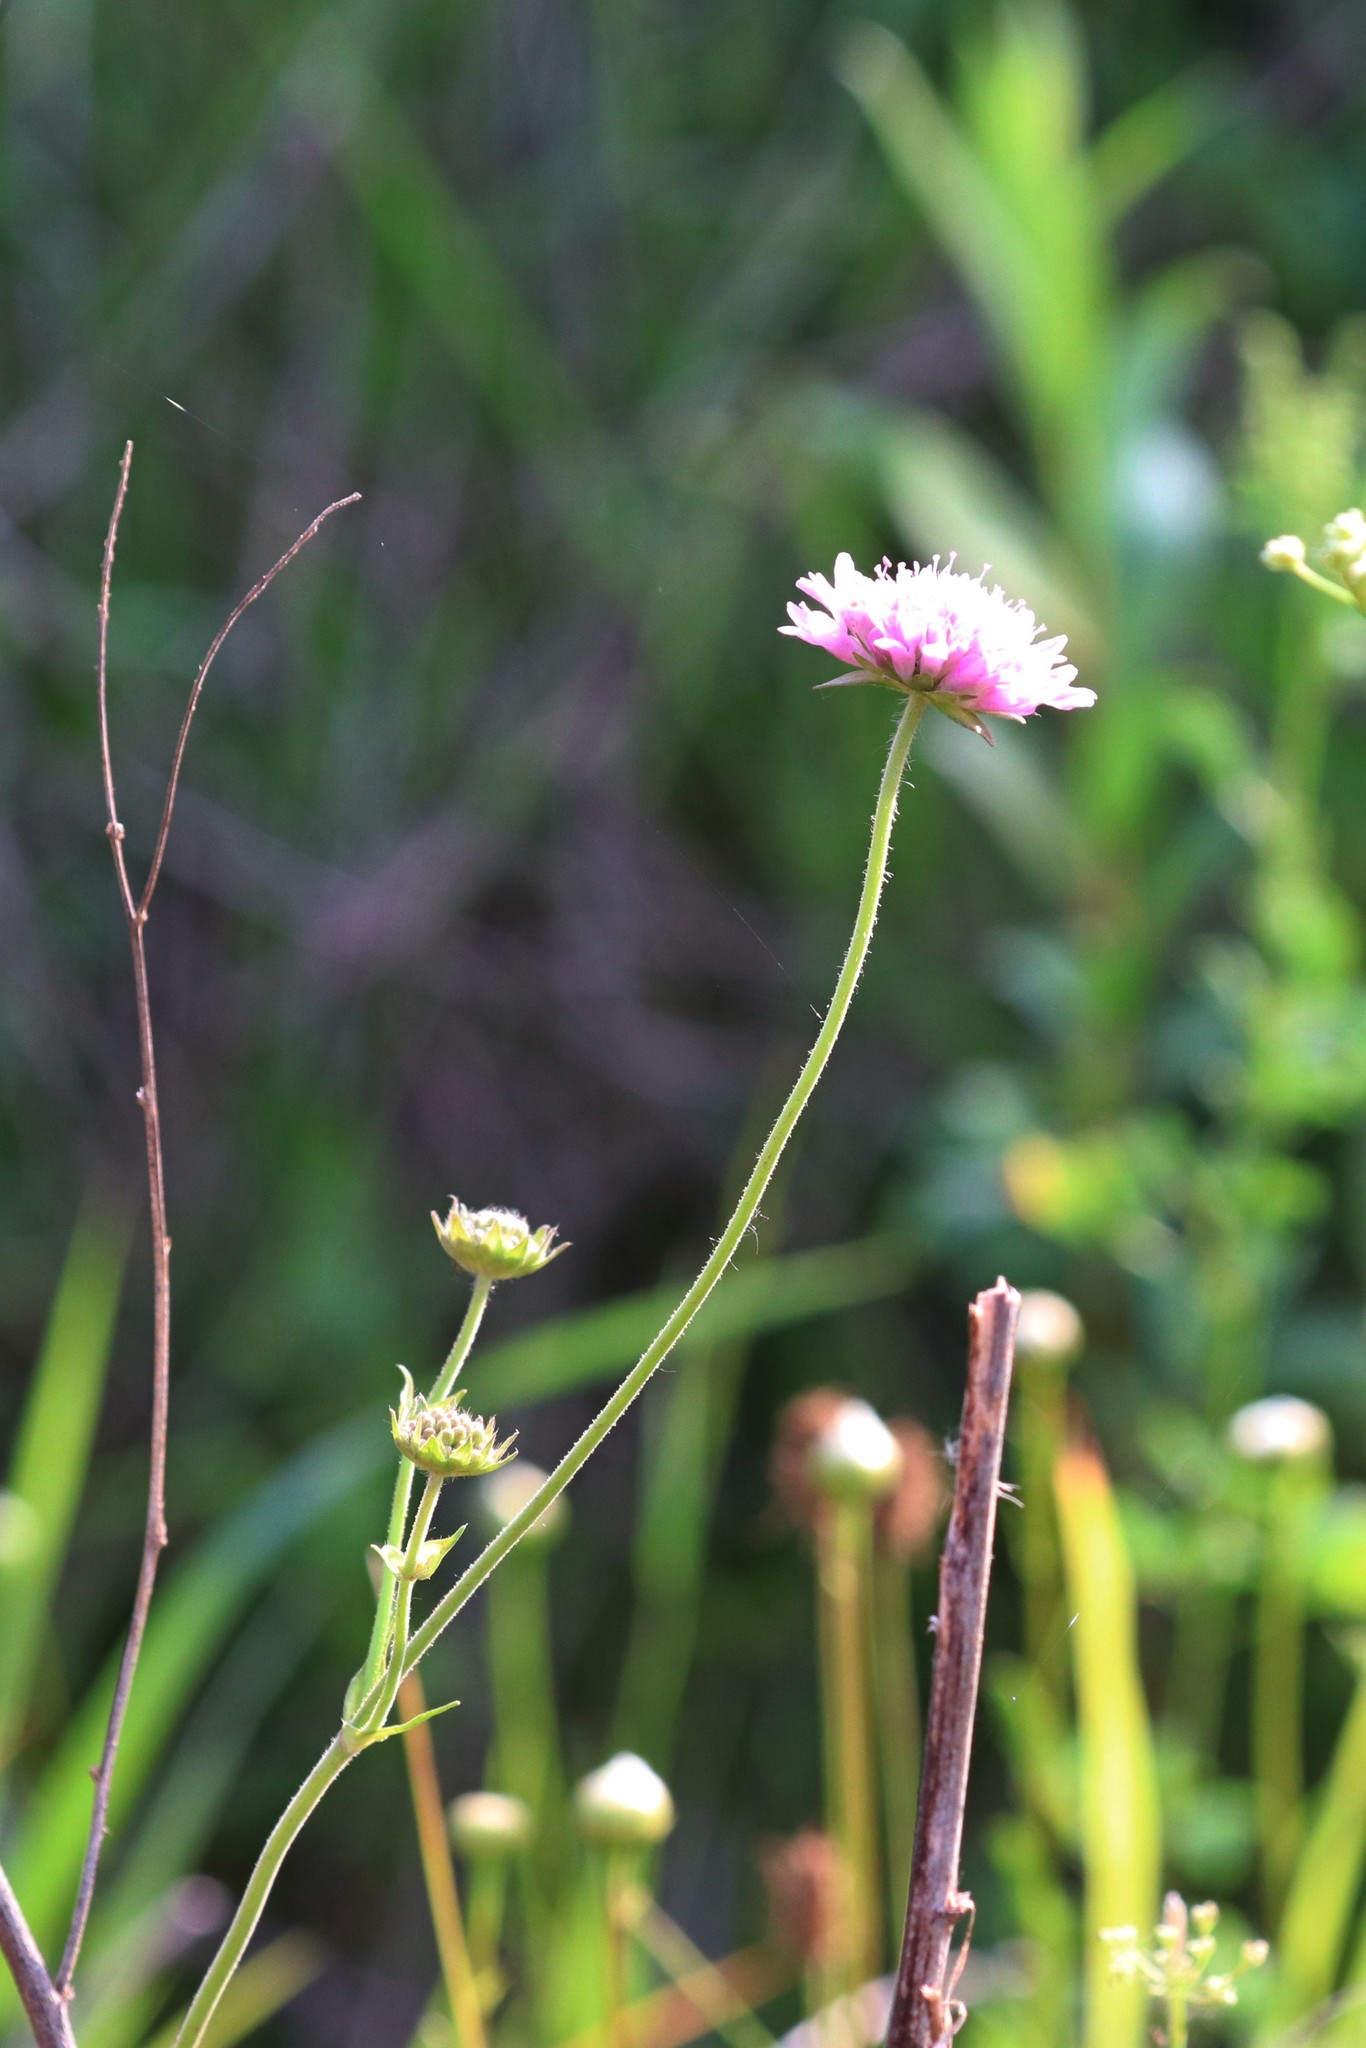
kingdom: Plantae
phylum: Tracheophyta
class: Magnoliopsida
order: Dipsacales
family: Caprifoliaceae
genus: Knautia
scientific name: Knautia arvensis
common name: Field scabiosa
